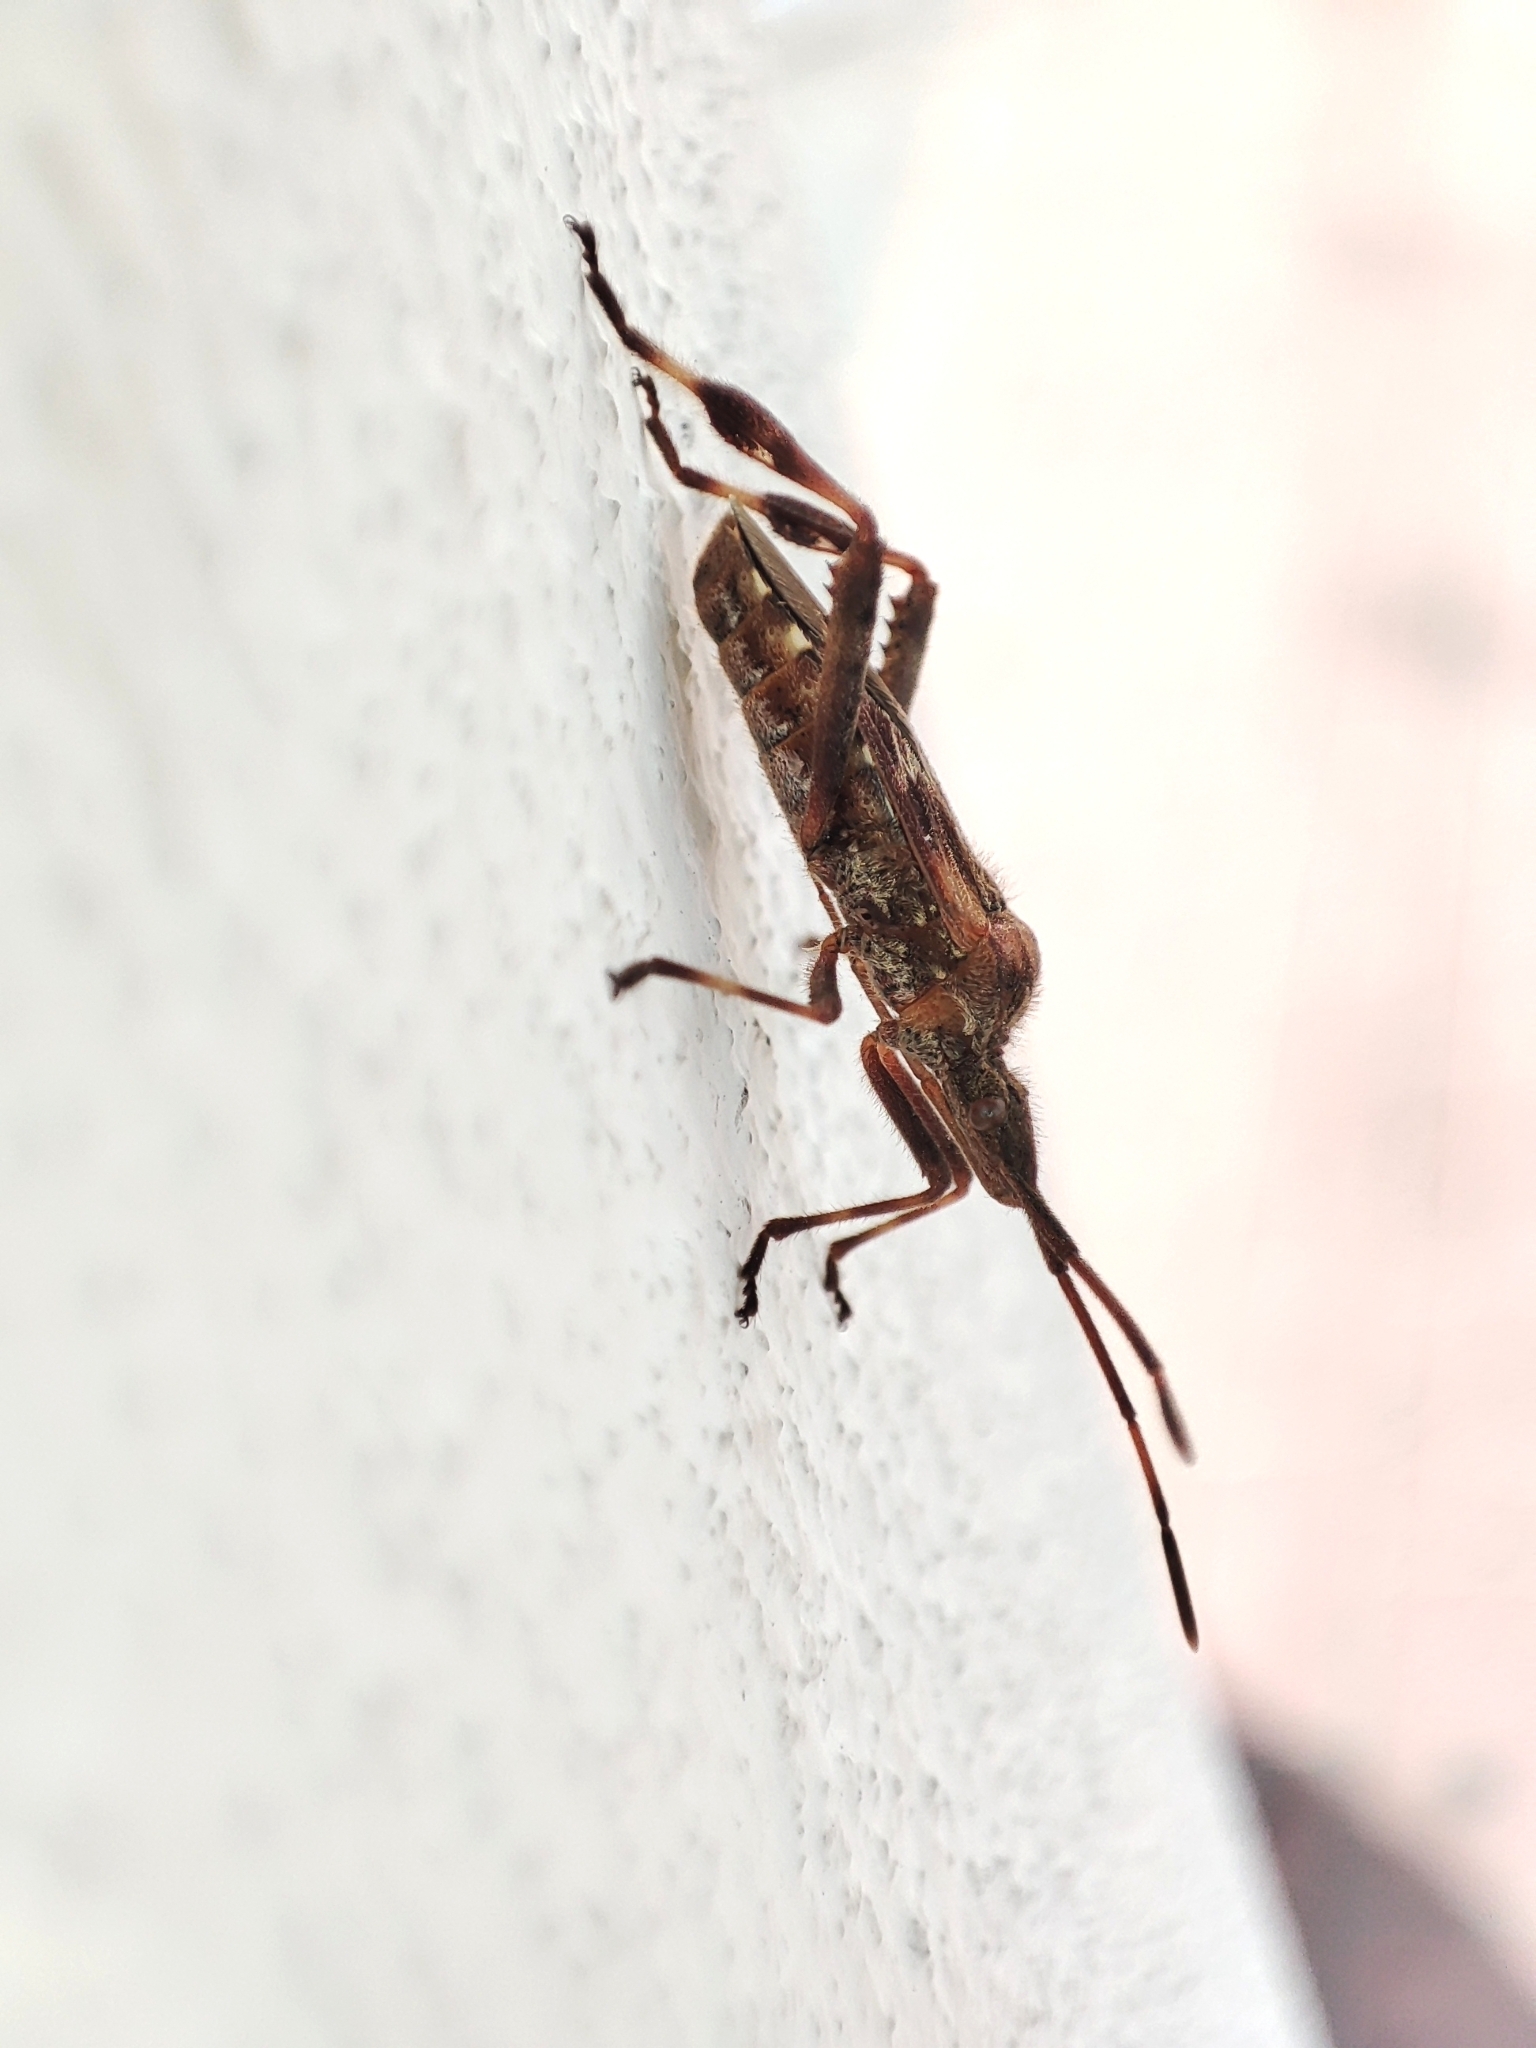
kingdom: Animalia
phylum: Arthropoda
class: Insecta
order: Hemiptera
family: Coreidae
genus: Leptoglossus
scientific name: Leptoglossus occidentalis
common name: Western conifer-seed bug
